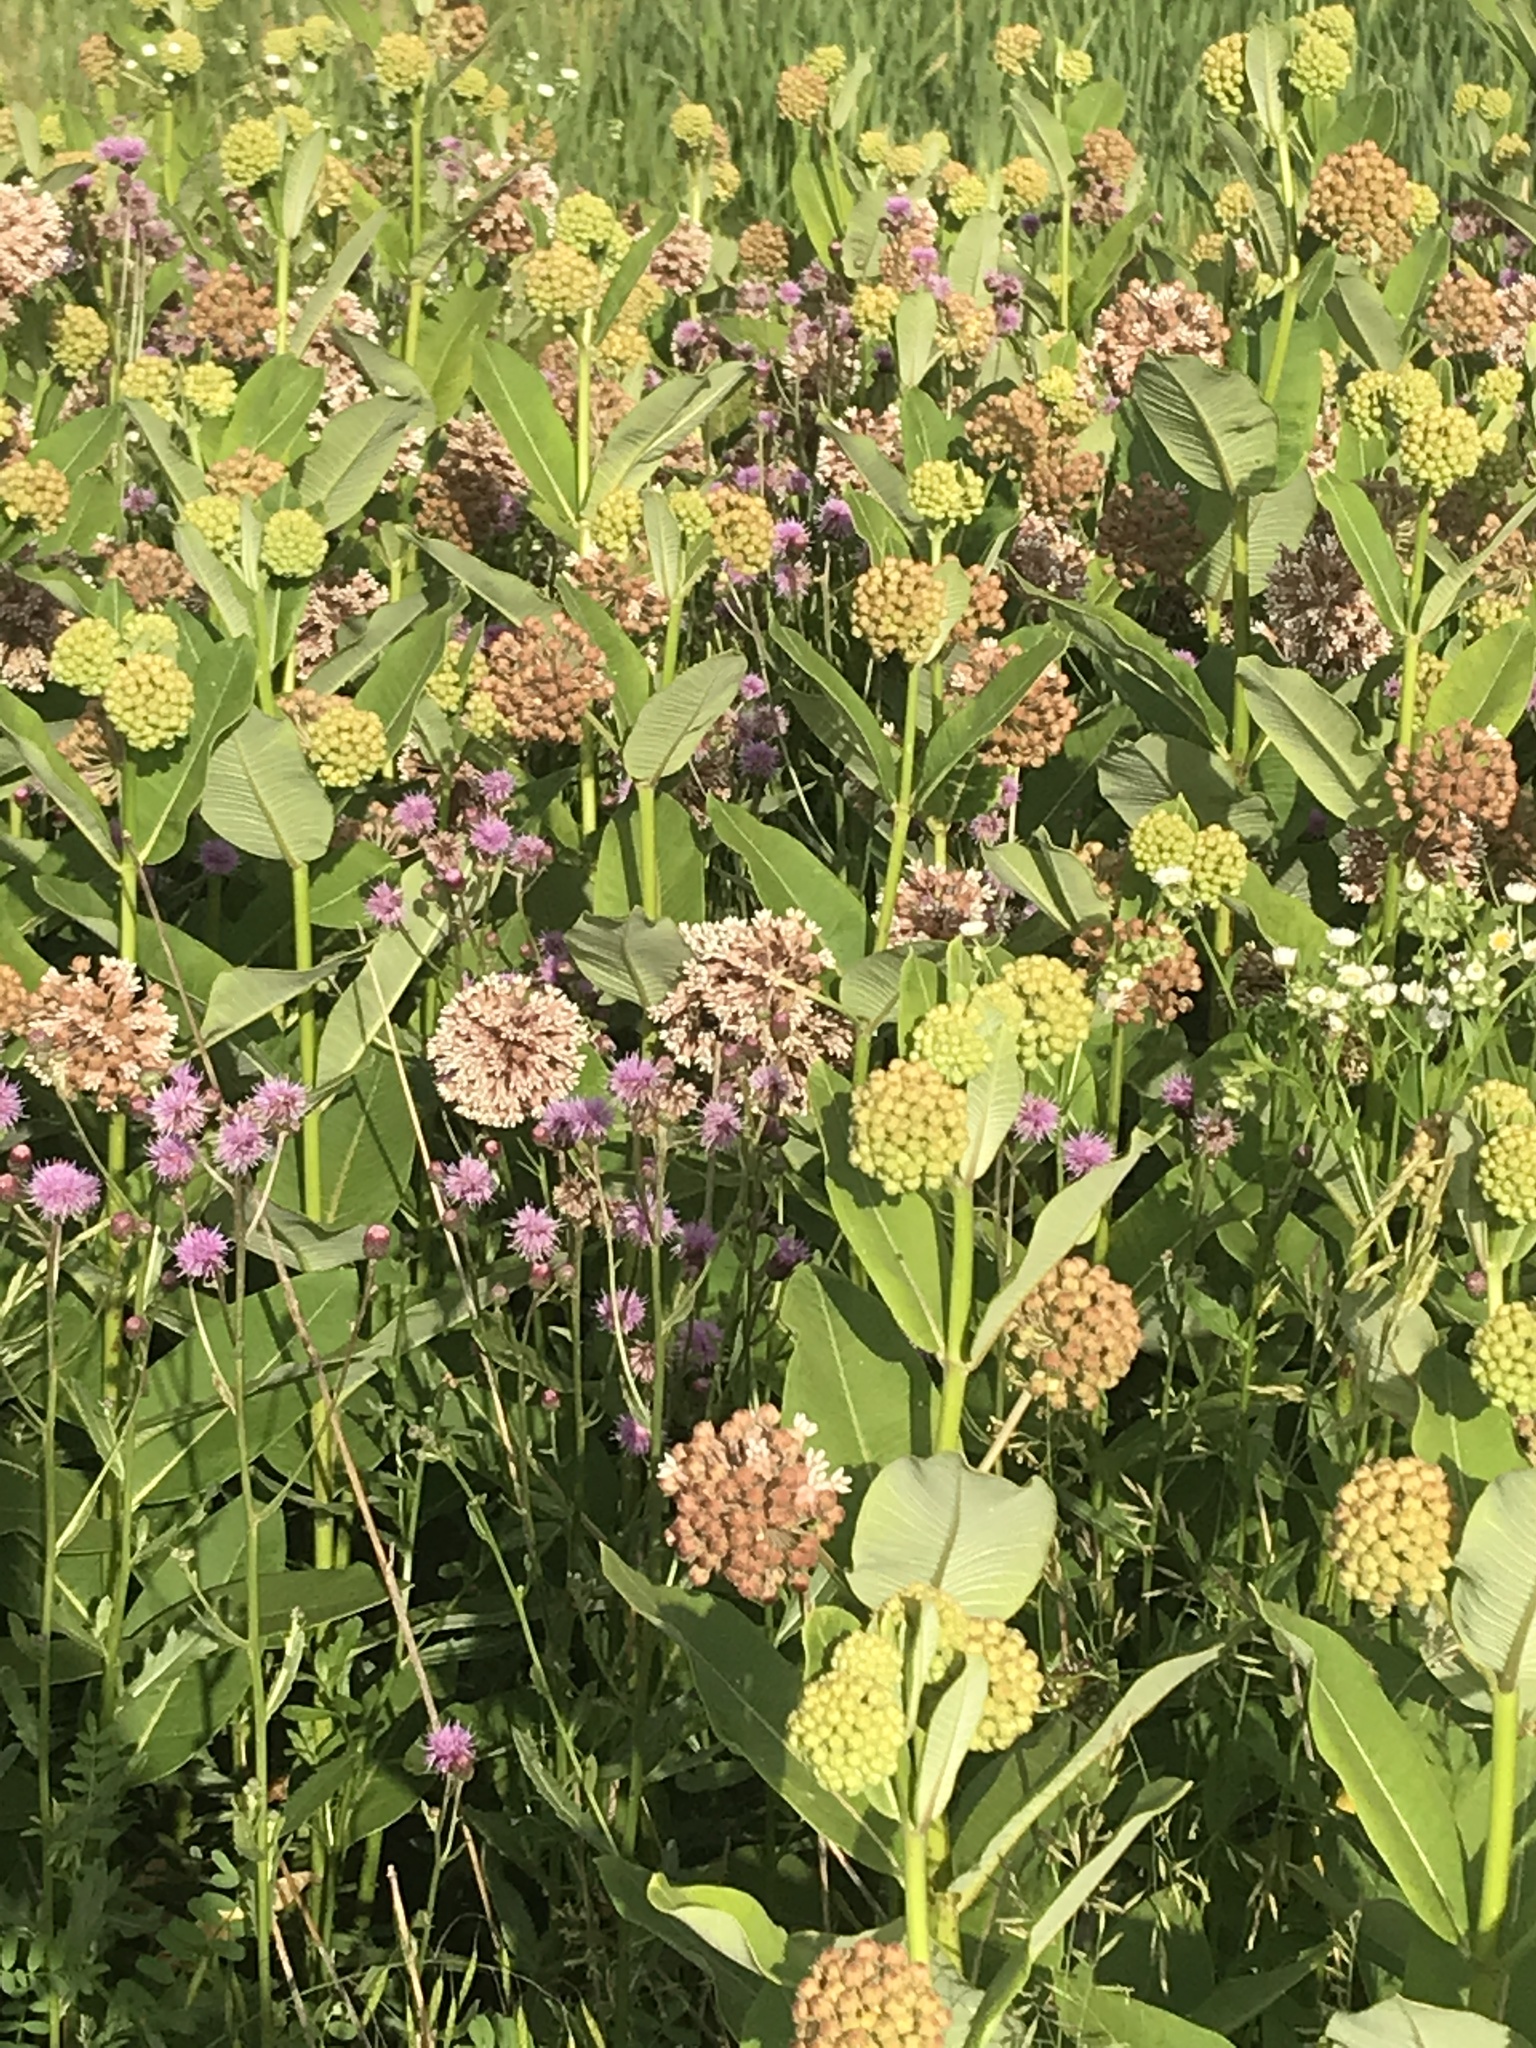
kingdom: Plantae
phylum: Tracheophyta
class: Magnoliopsida
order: Gentianales
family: Apocynaceae
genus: Asclepias
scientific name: Asclepias syriaca
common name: Common milkweed
